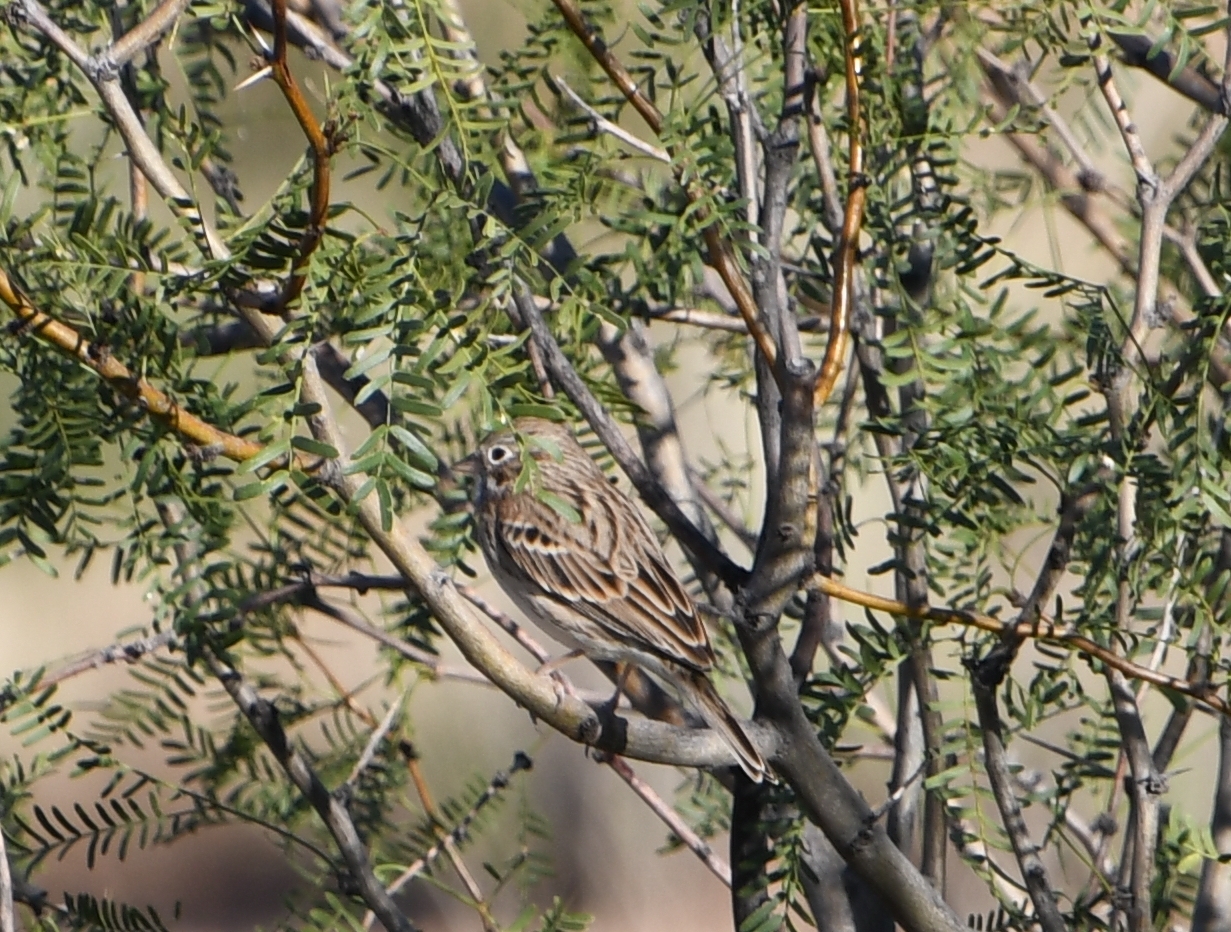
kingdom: Animalia
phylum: Chordata
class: Aves
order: Passeriformes
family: Passerellidae
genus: Pooecetes
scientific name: Pooecetes gramineus
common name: Vesper sparrow
